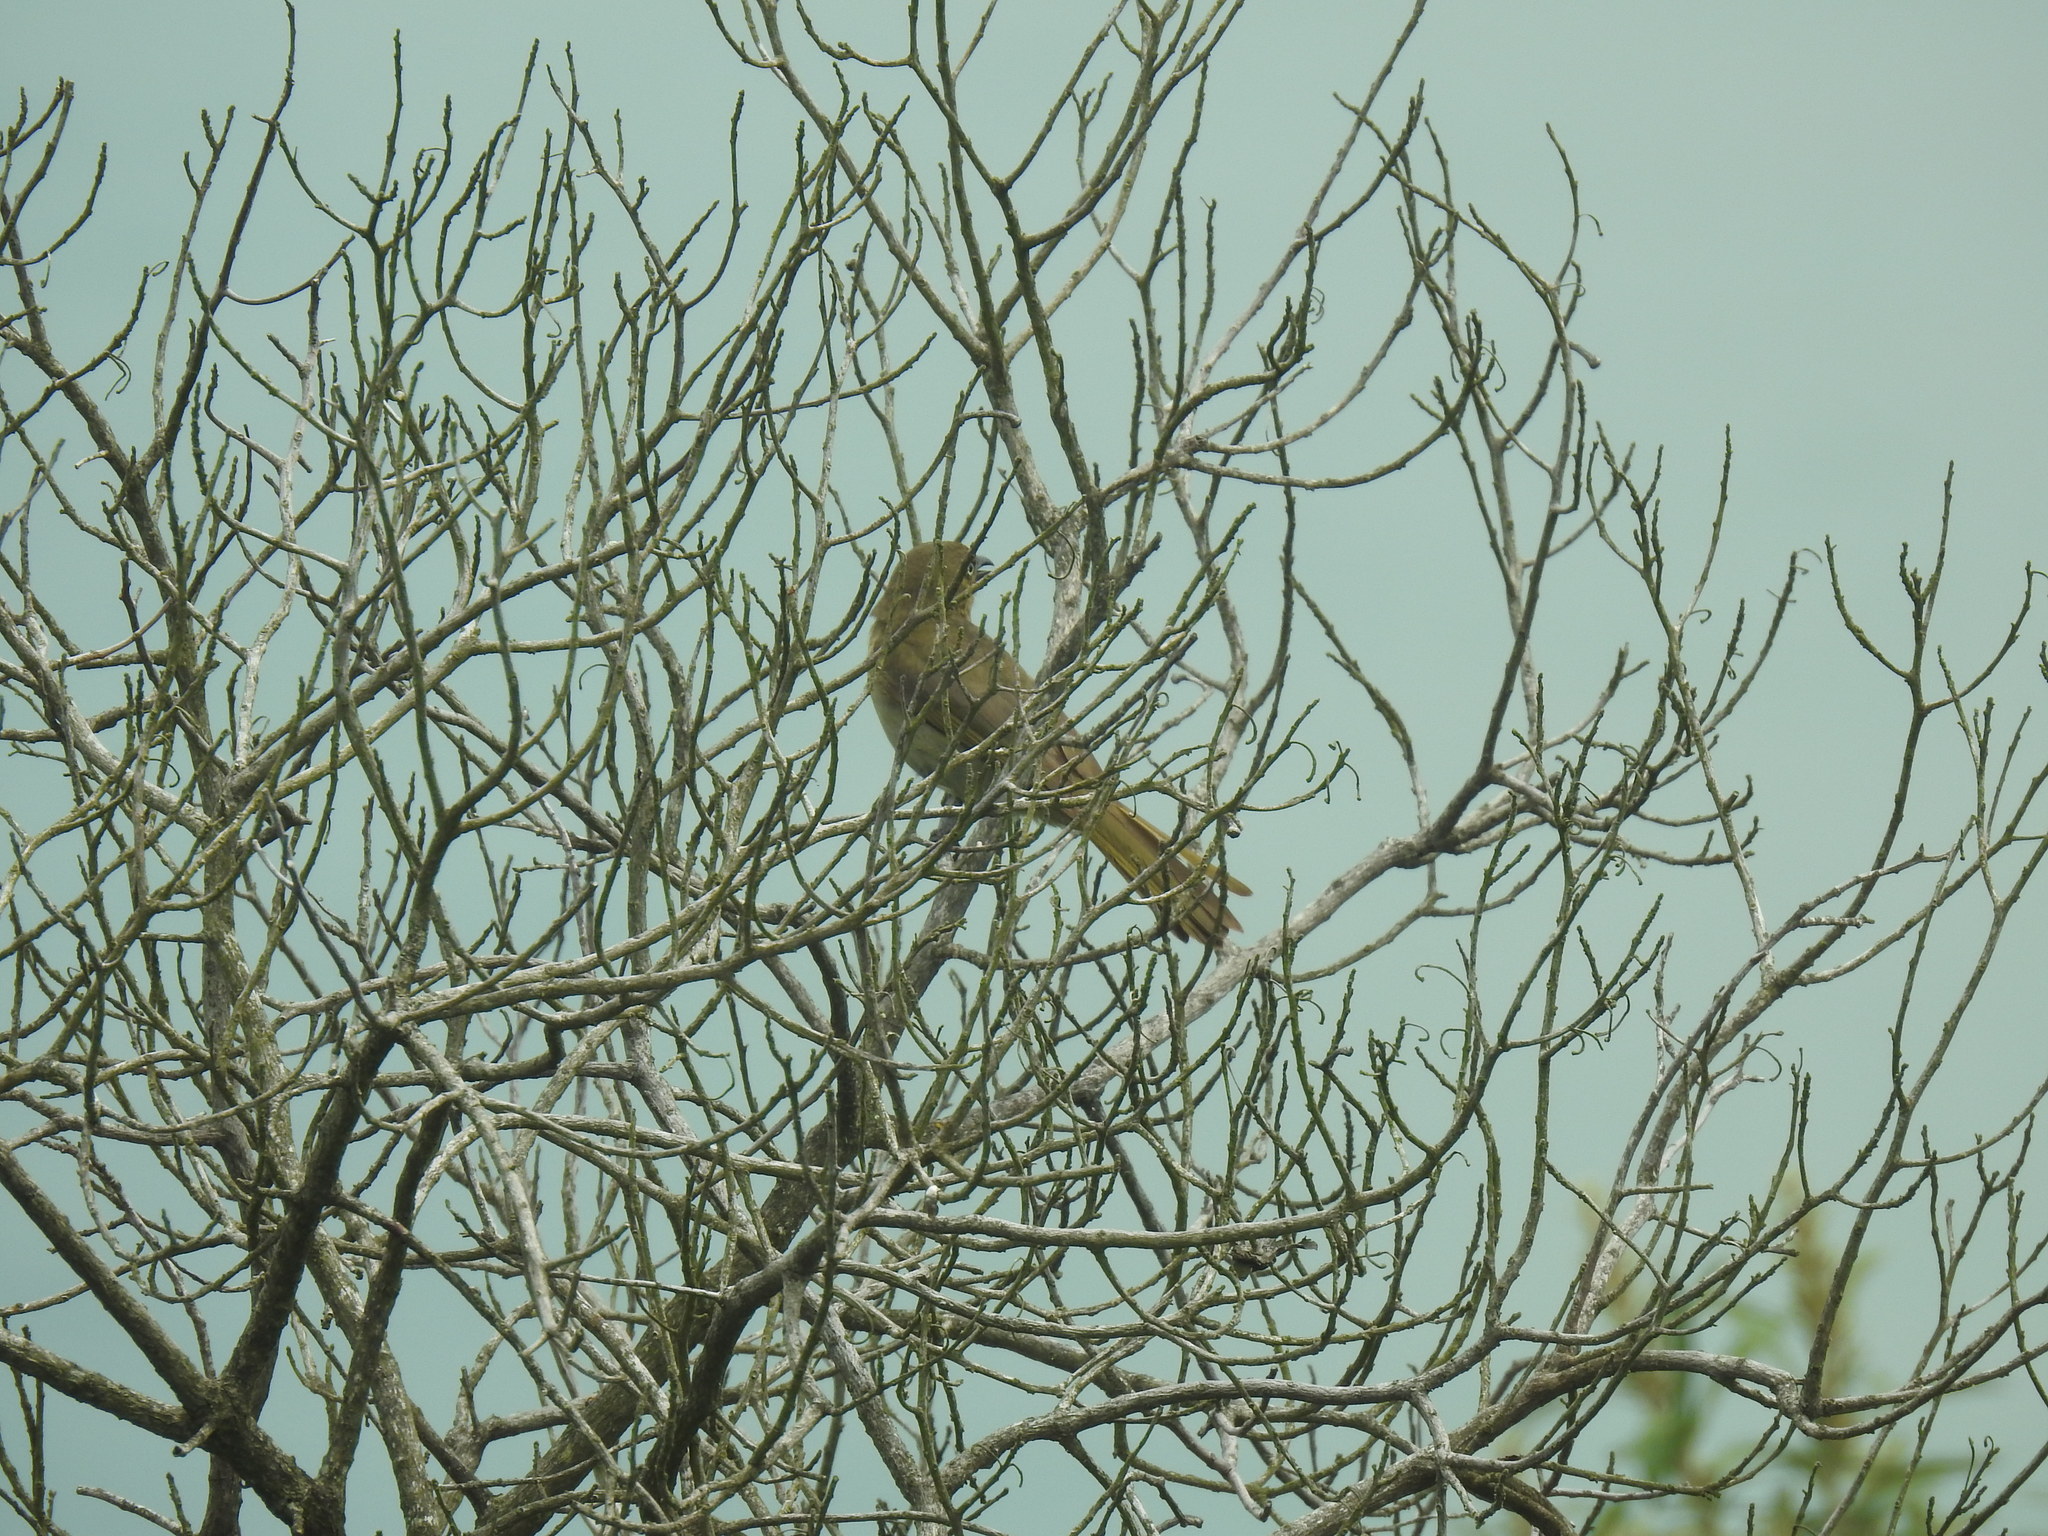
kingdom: Animalia
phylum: Chordata
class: Aves
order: Passeriformes
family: Pycnonotidae
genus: Andropadus
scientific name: Andropadus importunus
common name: Sombre greenbul
